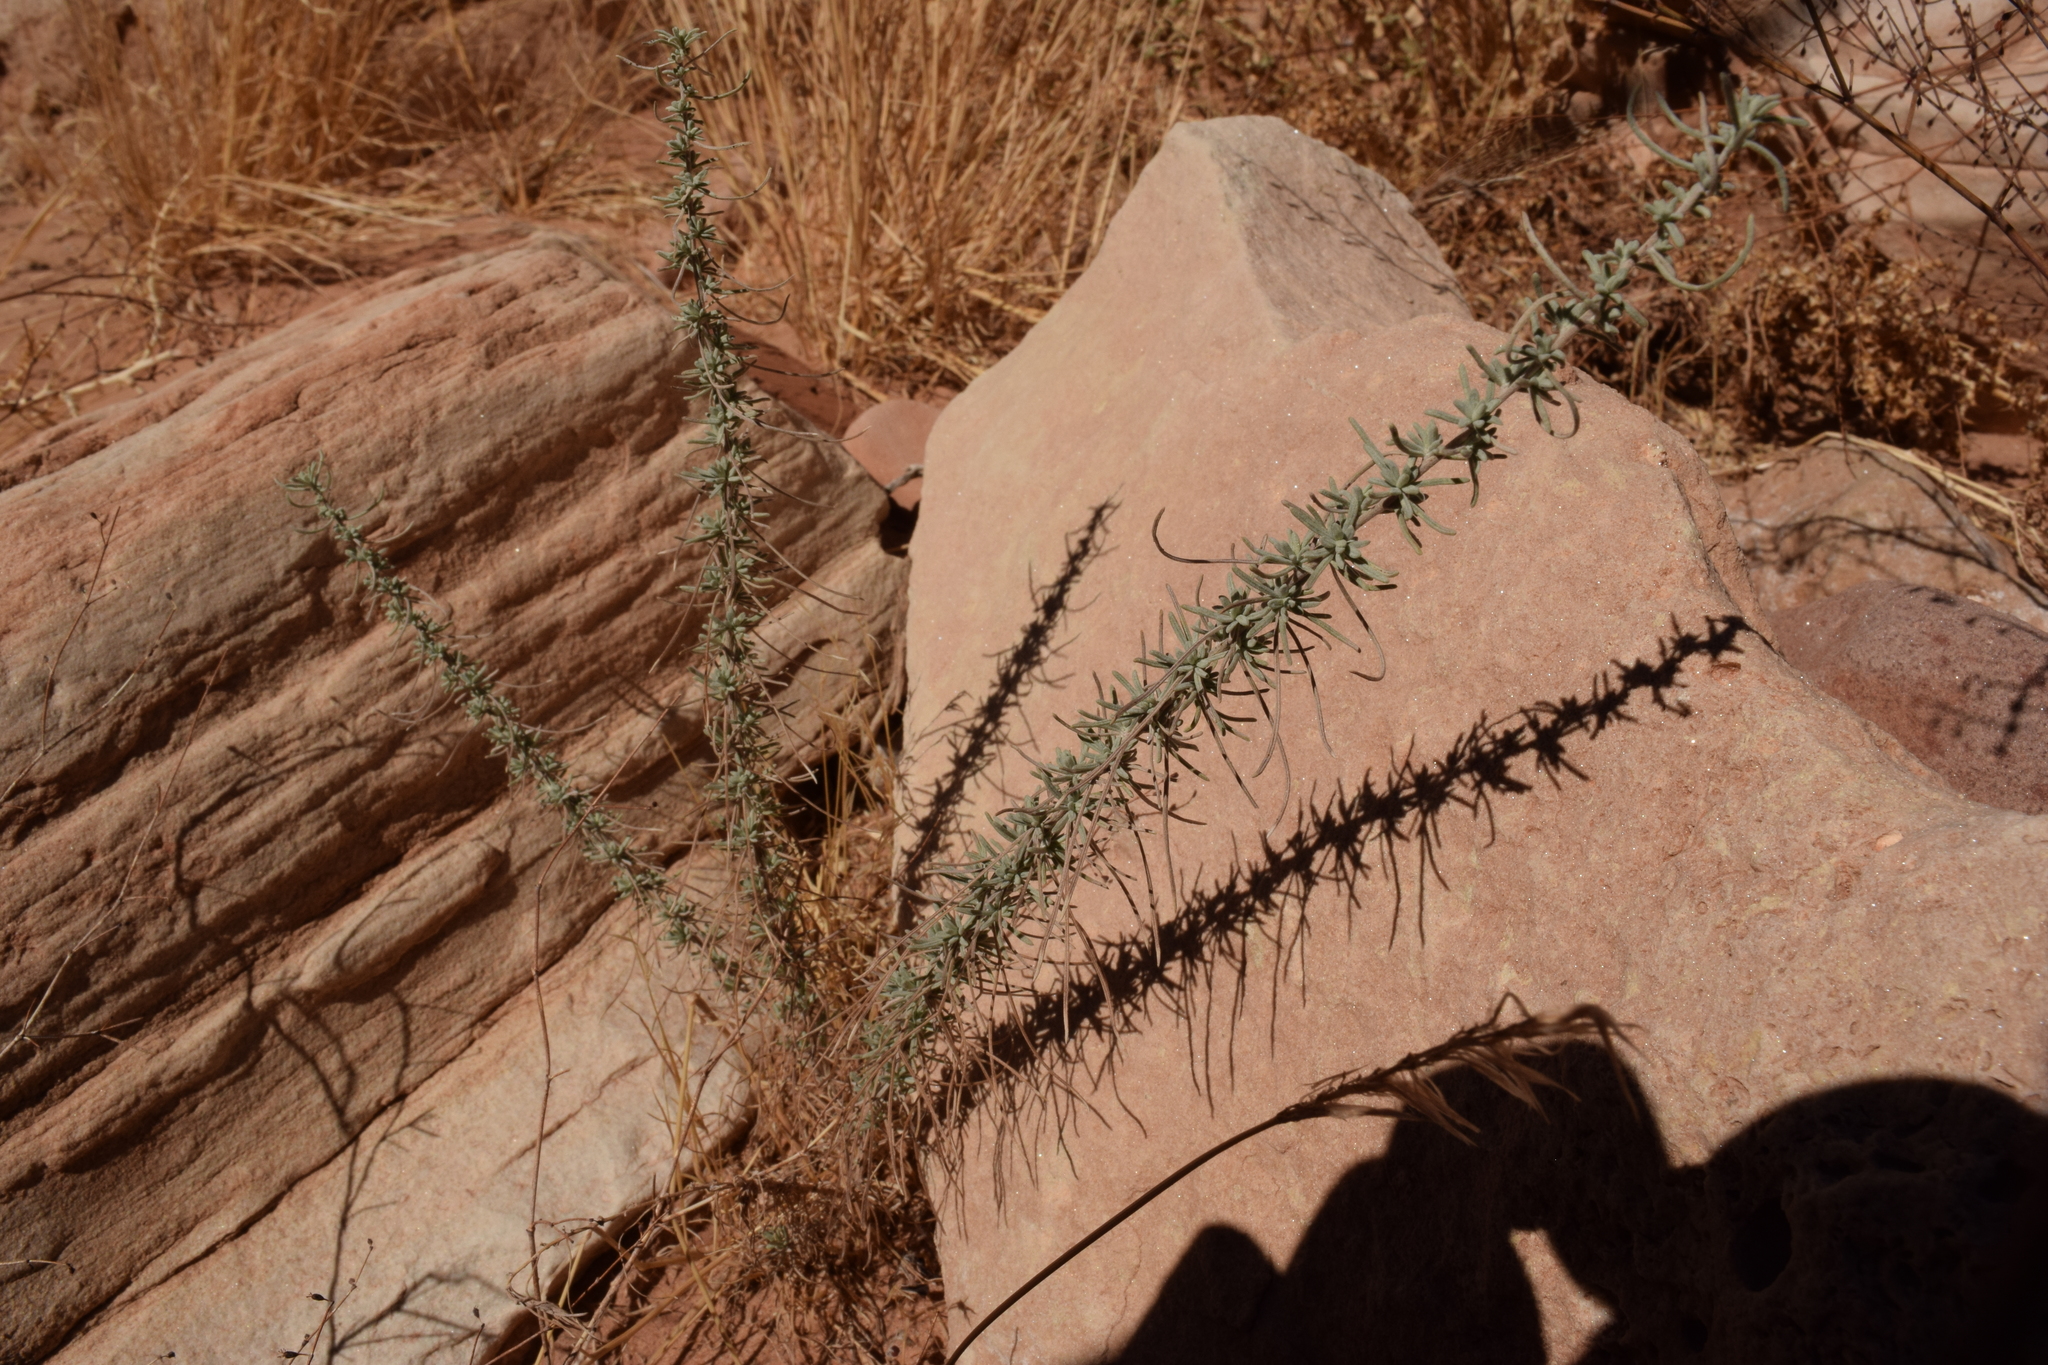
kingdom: Plantae
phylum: Tracheophyta
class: Magnoliopsida
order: Asterales
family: Asteraceae
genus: Artemisia
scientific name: Artemisia filifolia
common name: Sand-sage
